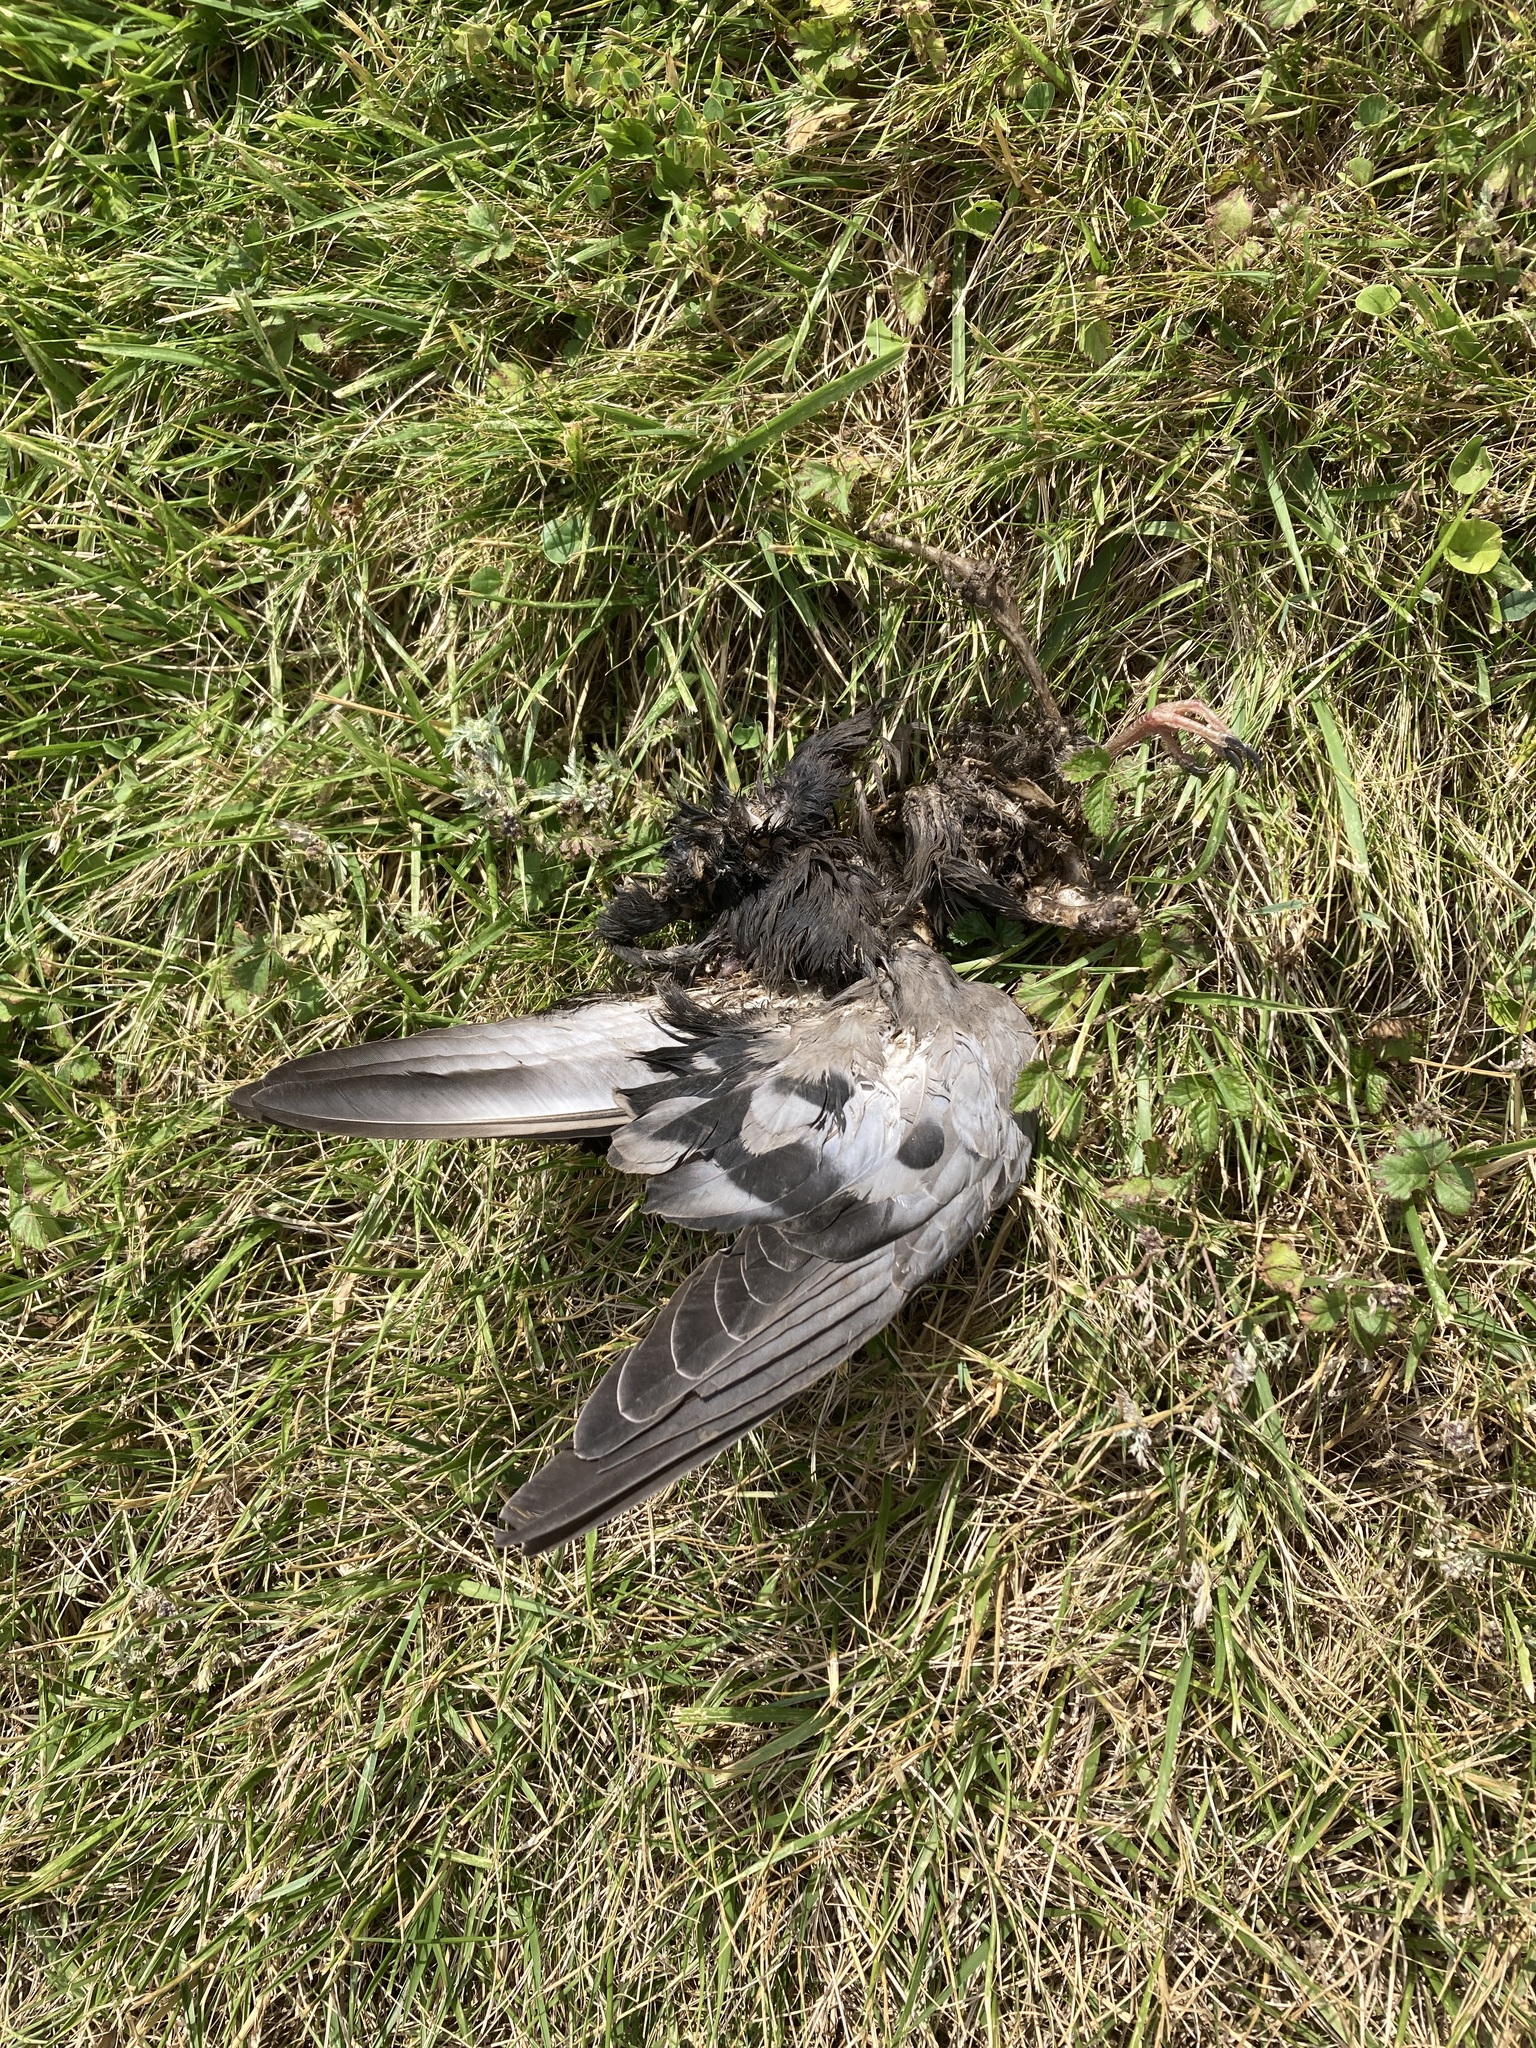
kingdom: Animalia
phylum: Chordata
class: Aves
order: Columbiformes
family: Columbidae
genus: Columba
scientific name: Columba livia
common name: Rock pigeon
